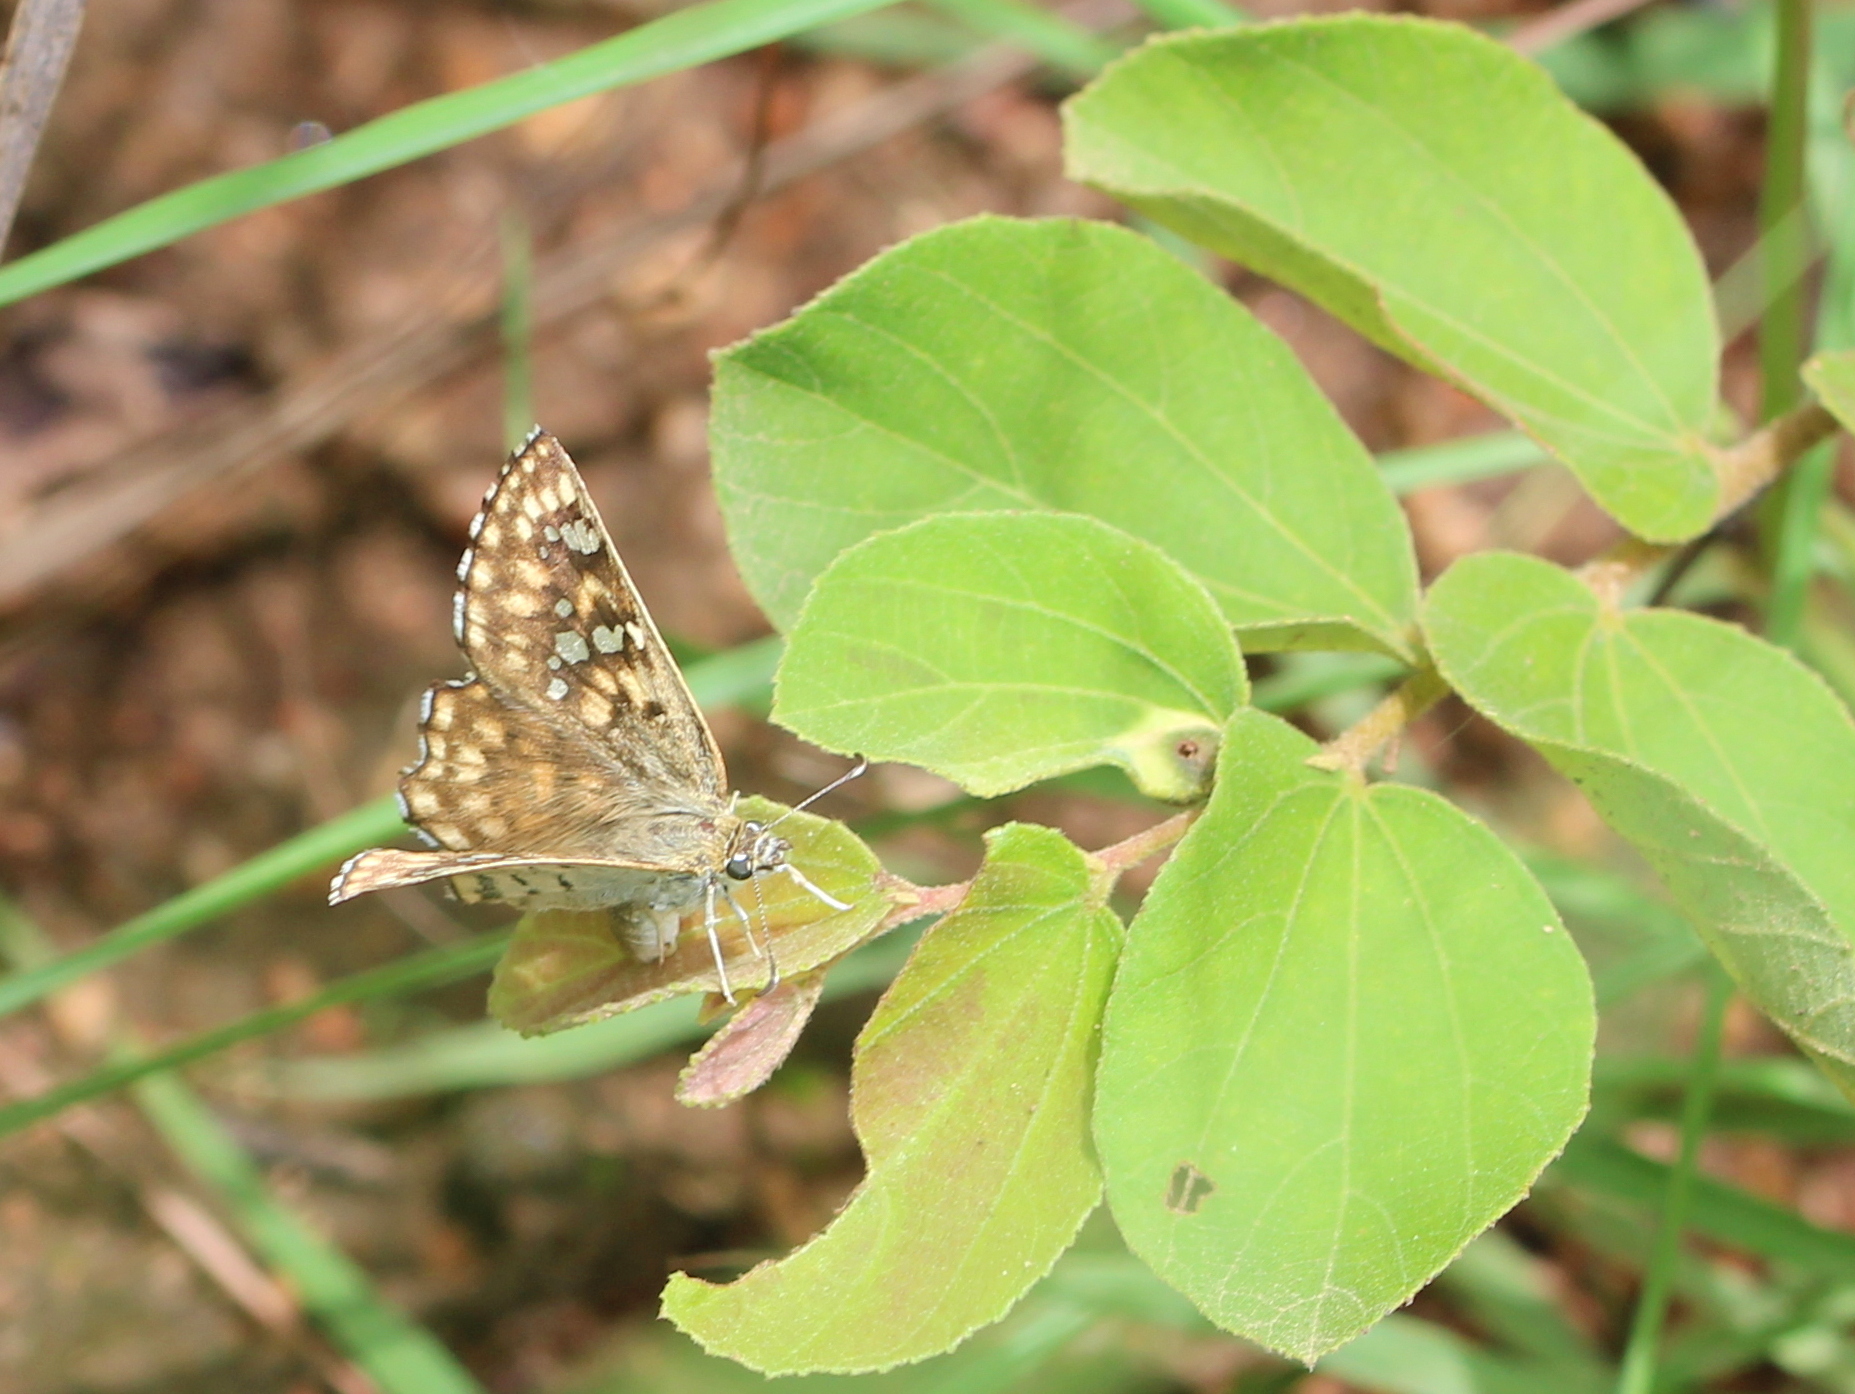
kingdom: Animalia
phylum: Arthropoda
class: Insecta
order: Lepidoptera
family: Hesperiidae
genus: Caprona
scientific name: Caprona alida
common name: Spotted angle
